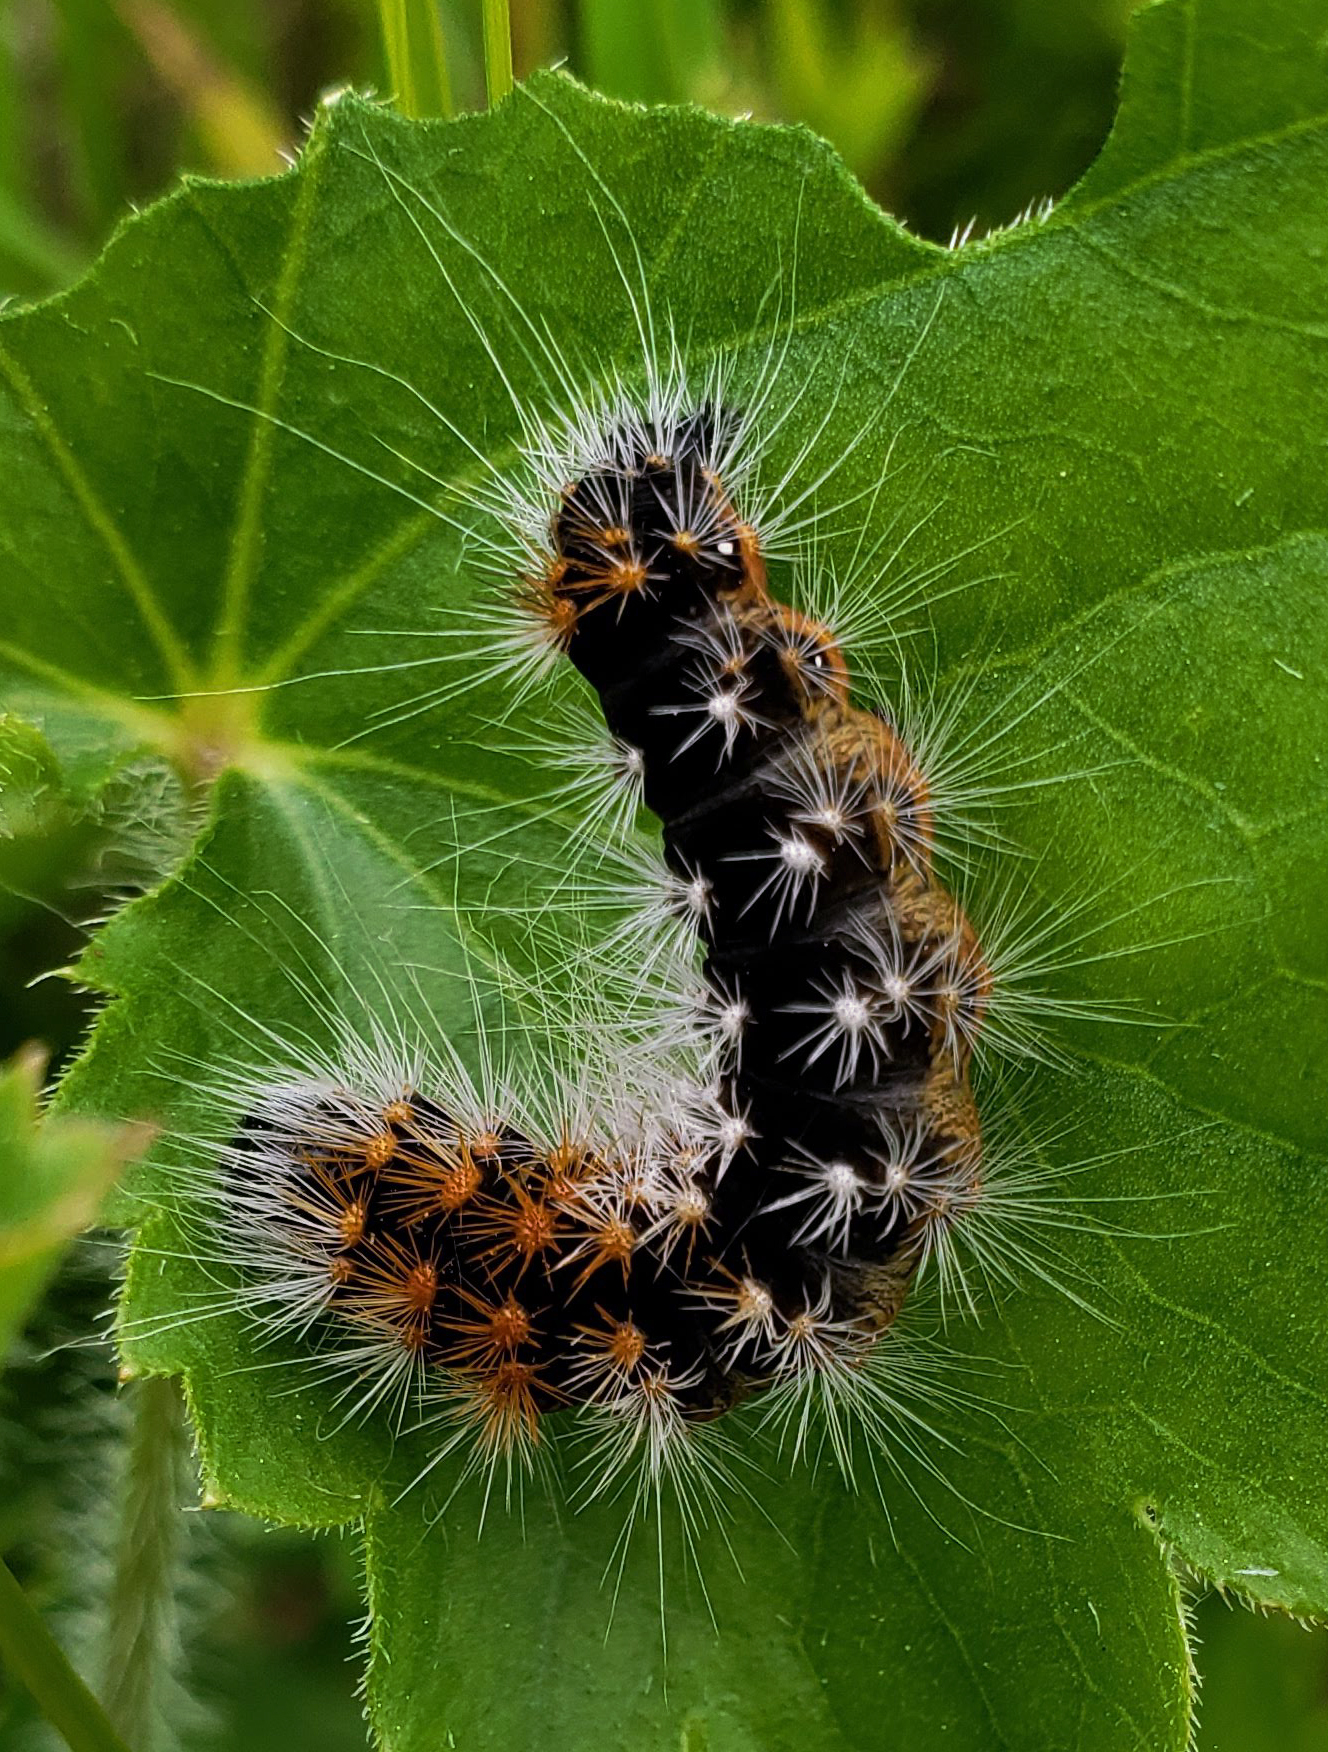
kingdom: Animalia
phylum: Arthropoda
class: Insecta
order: Lepidoptera
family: Noctuidae
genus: Acronicta
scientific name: Acronicta impressa
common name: Impressed dagger
